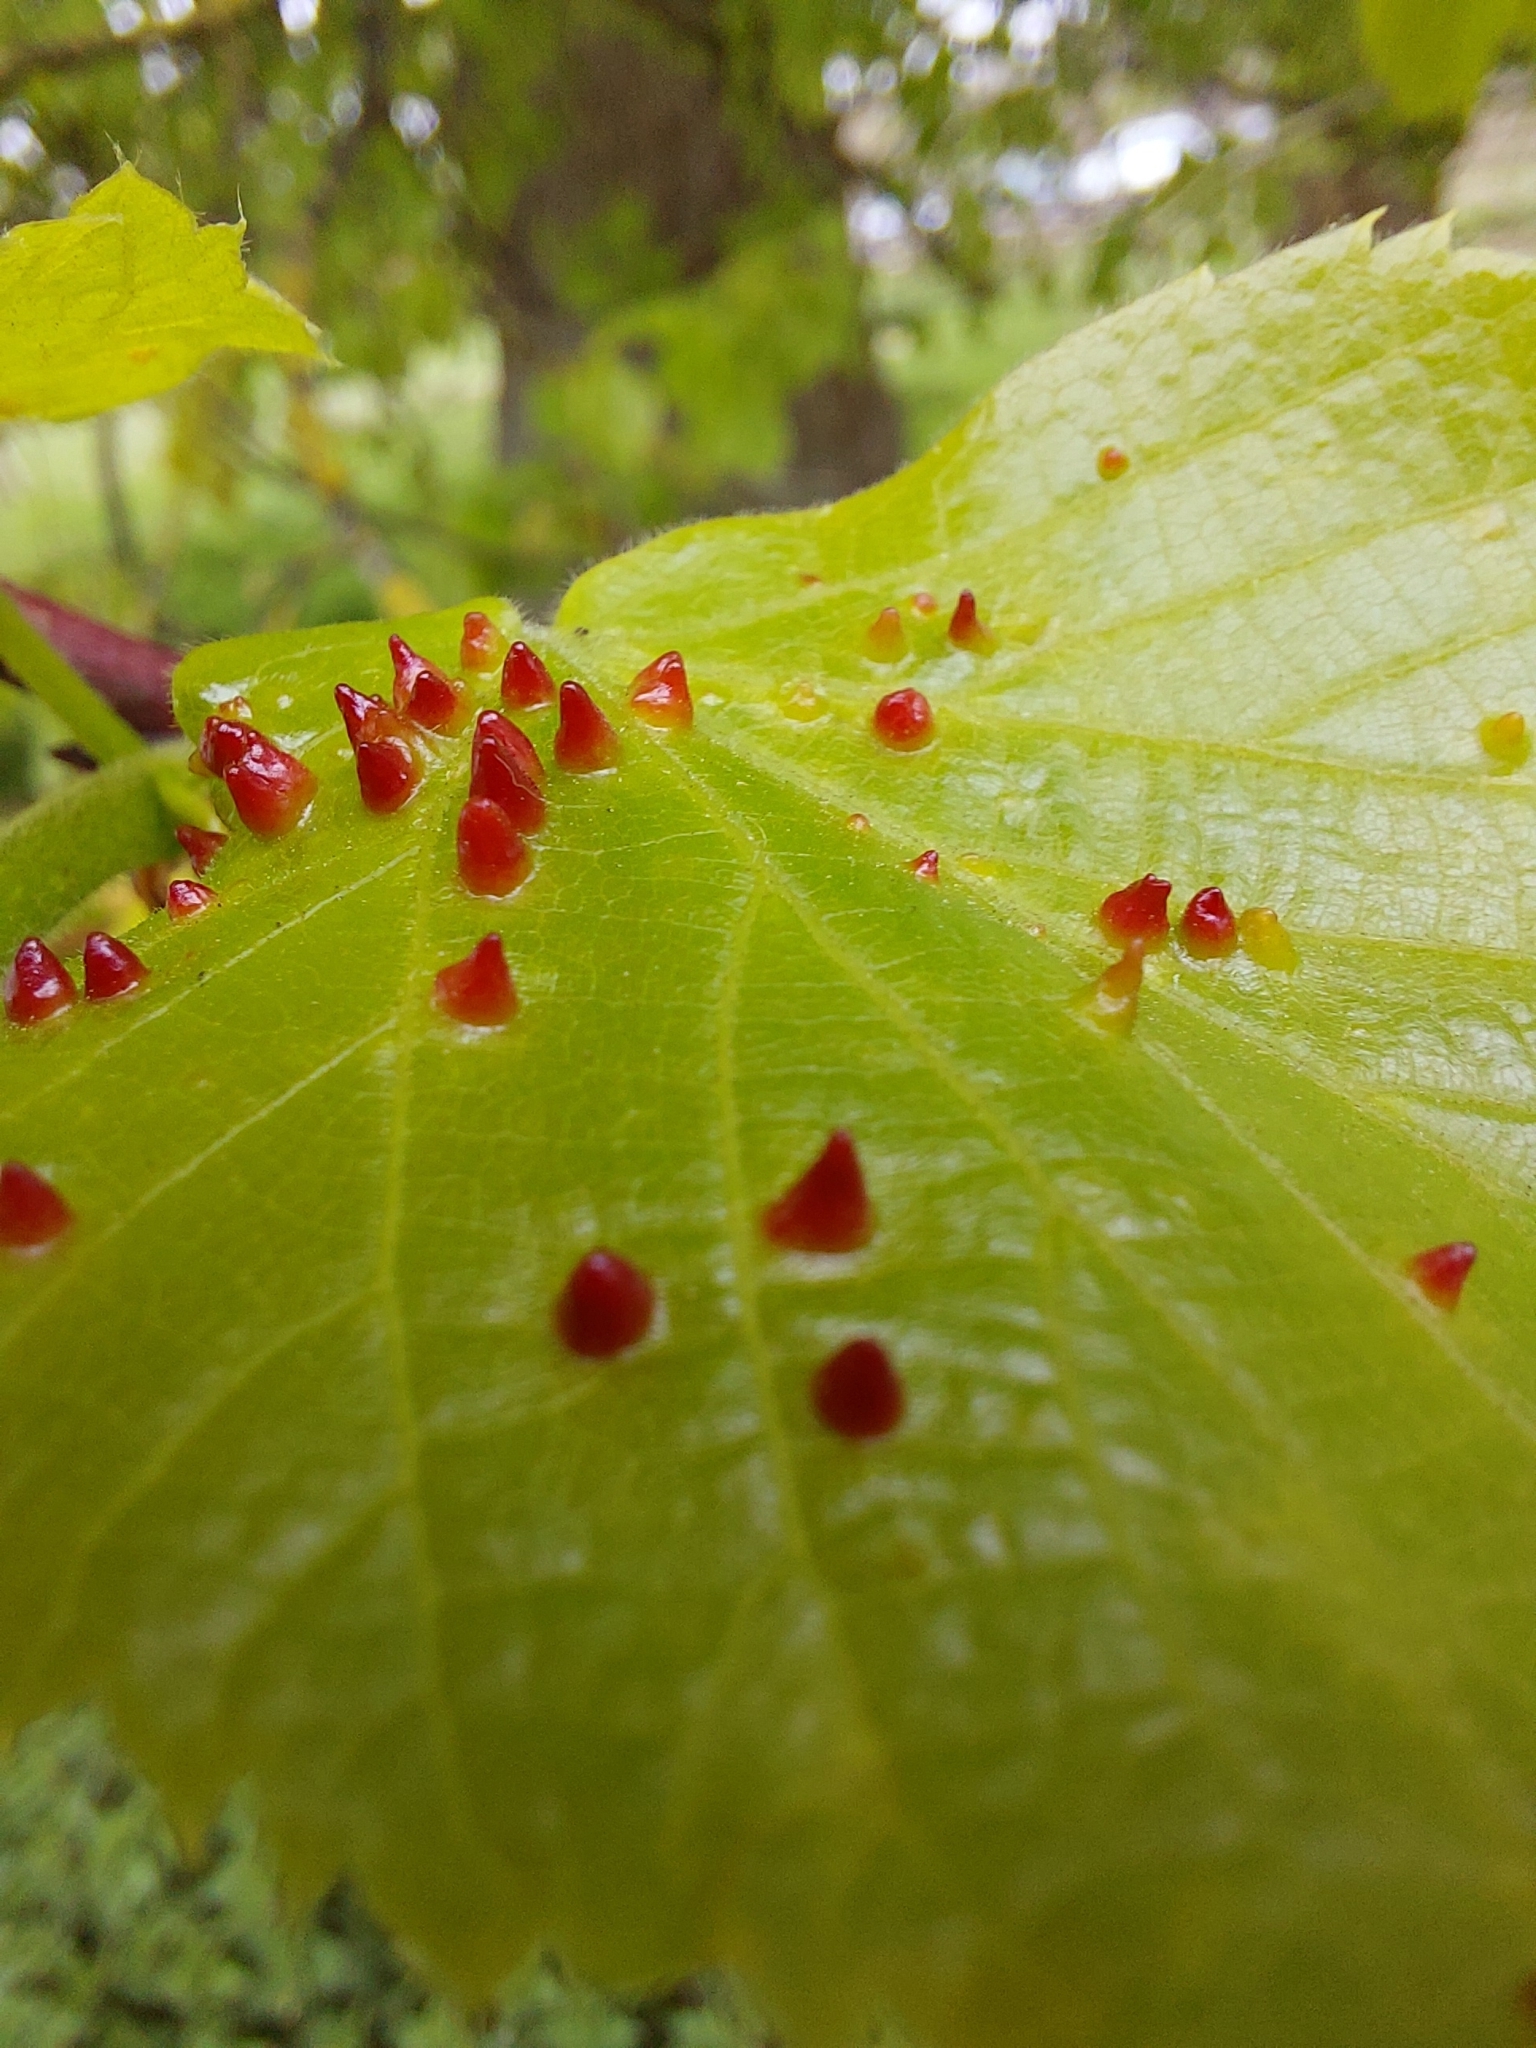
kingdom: Animalia
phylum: Arthropoda
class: Arachnida
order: Trombidiformes
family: Eriophyidae
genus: Eriophyes
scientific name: Eriophyes tiliae
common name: Red nail gall mite
